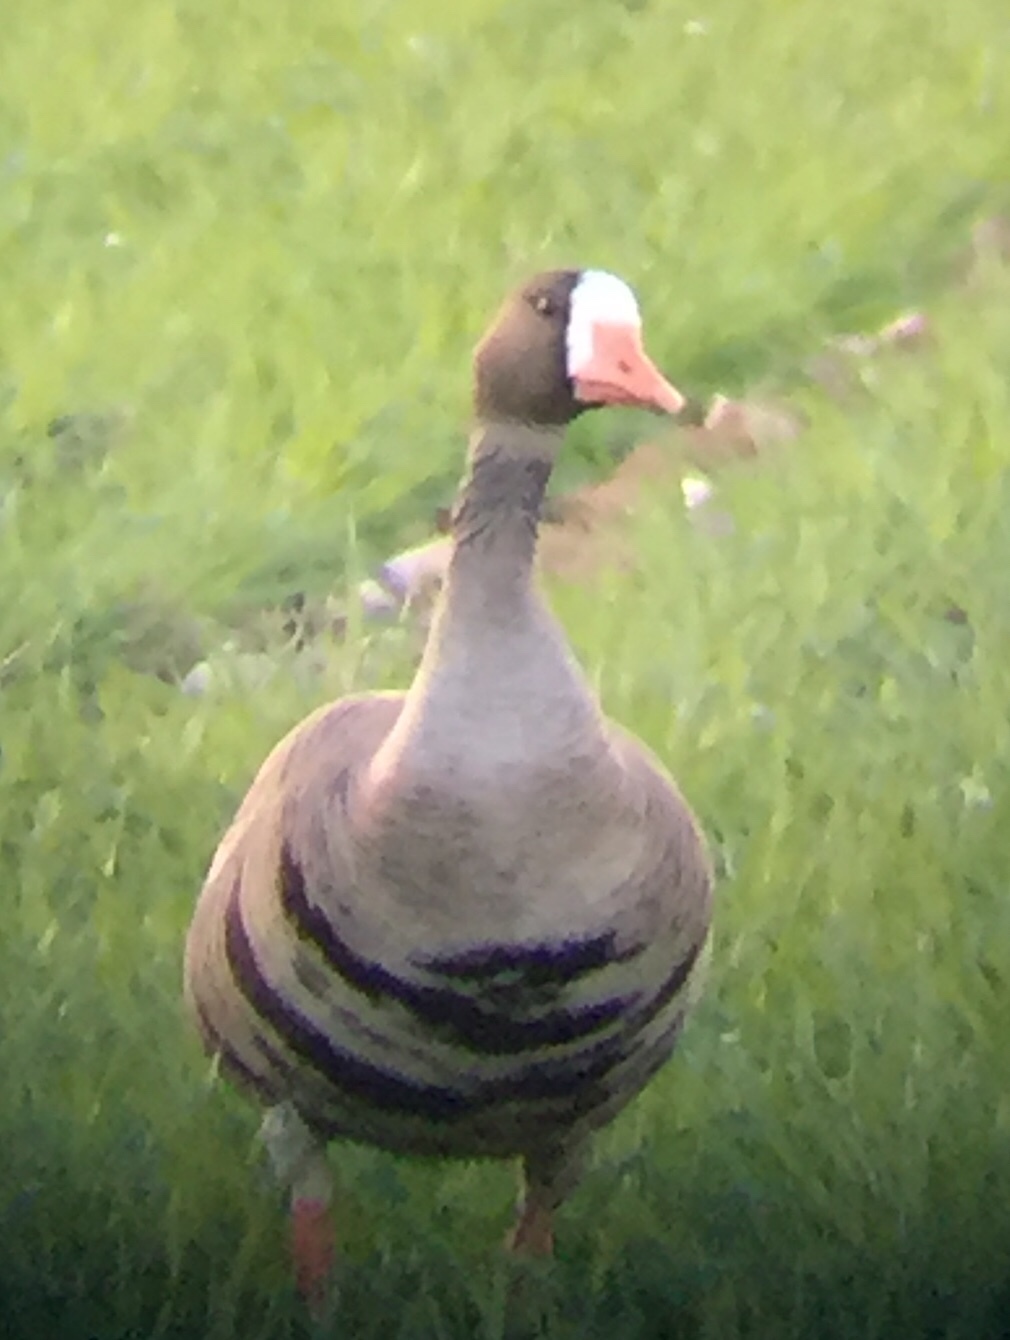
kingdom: Animalia
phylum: Chordata
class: Aves
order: Anseriformes
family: Anatidae
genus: Anser
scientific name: Anser albifrons
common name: Greater white-fronted goose
